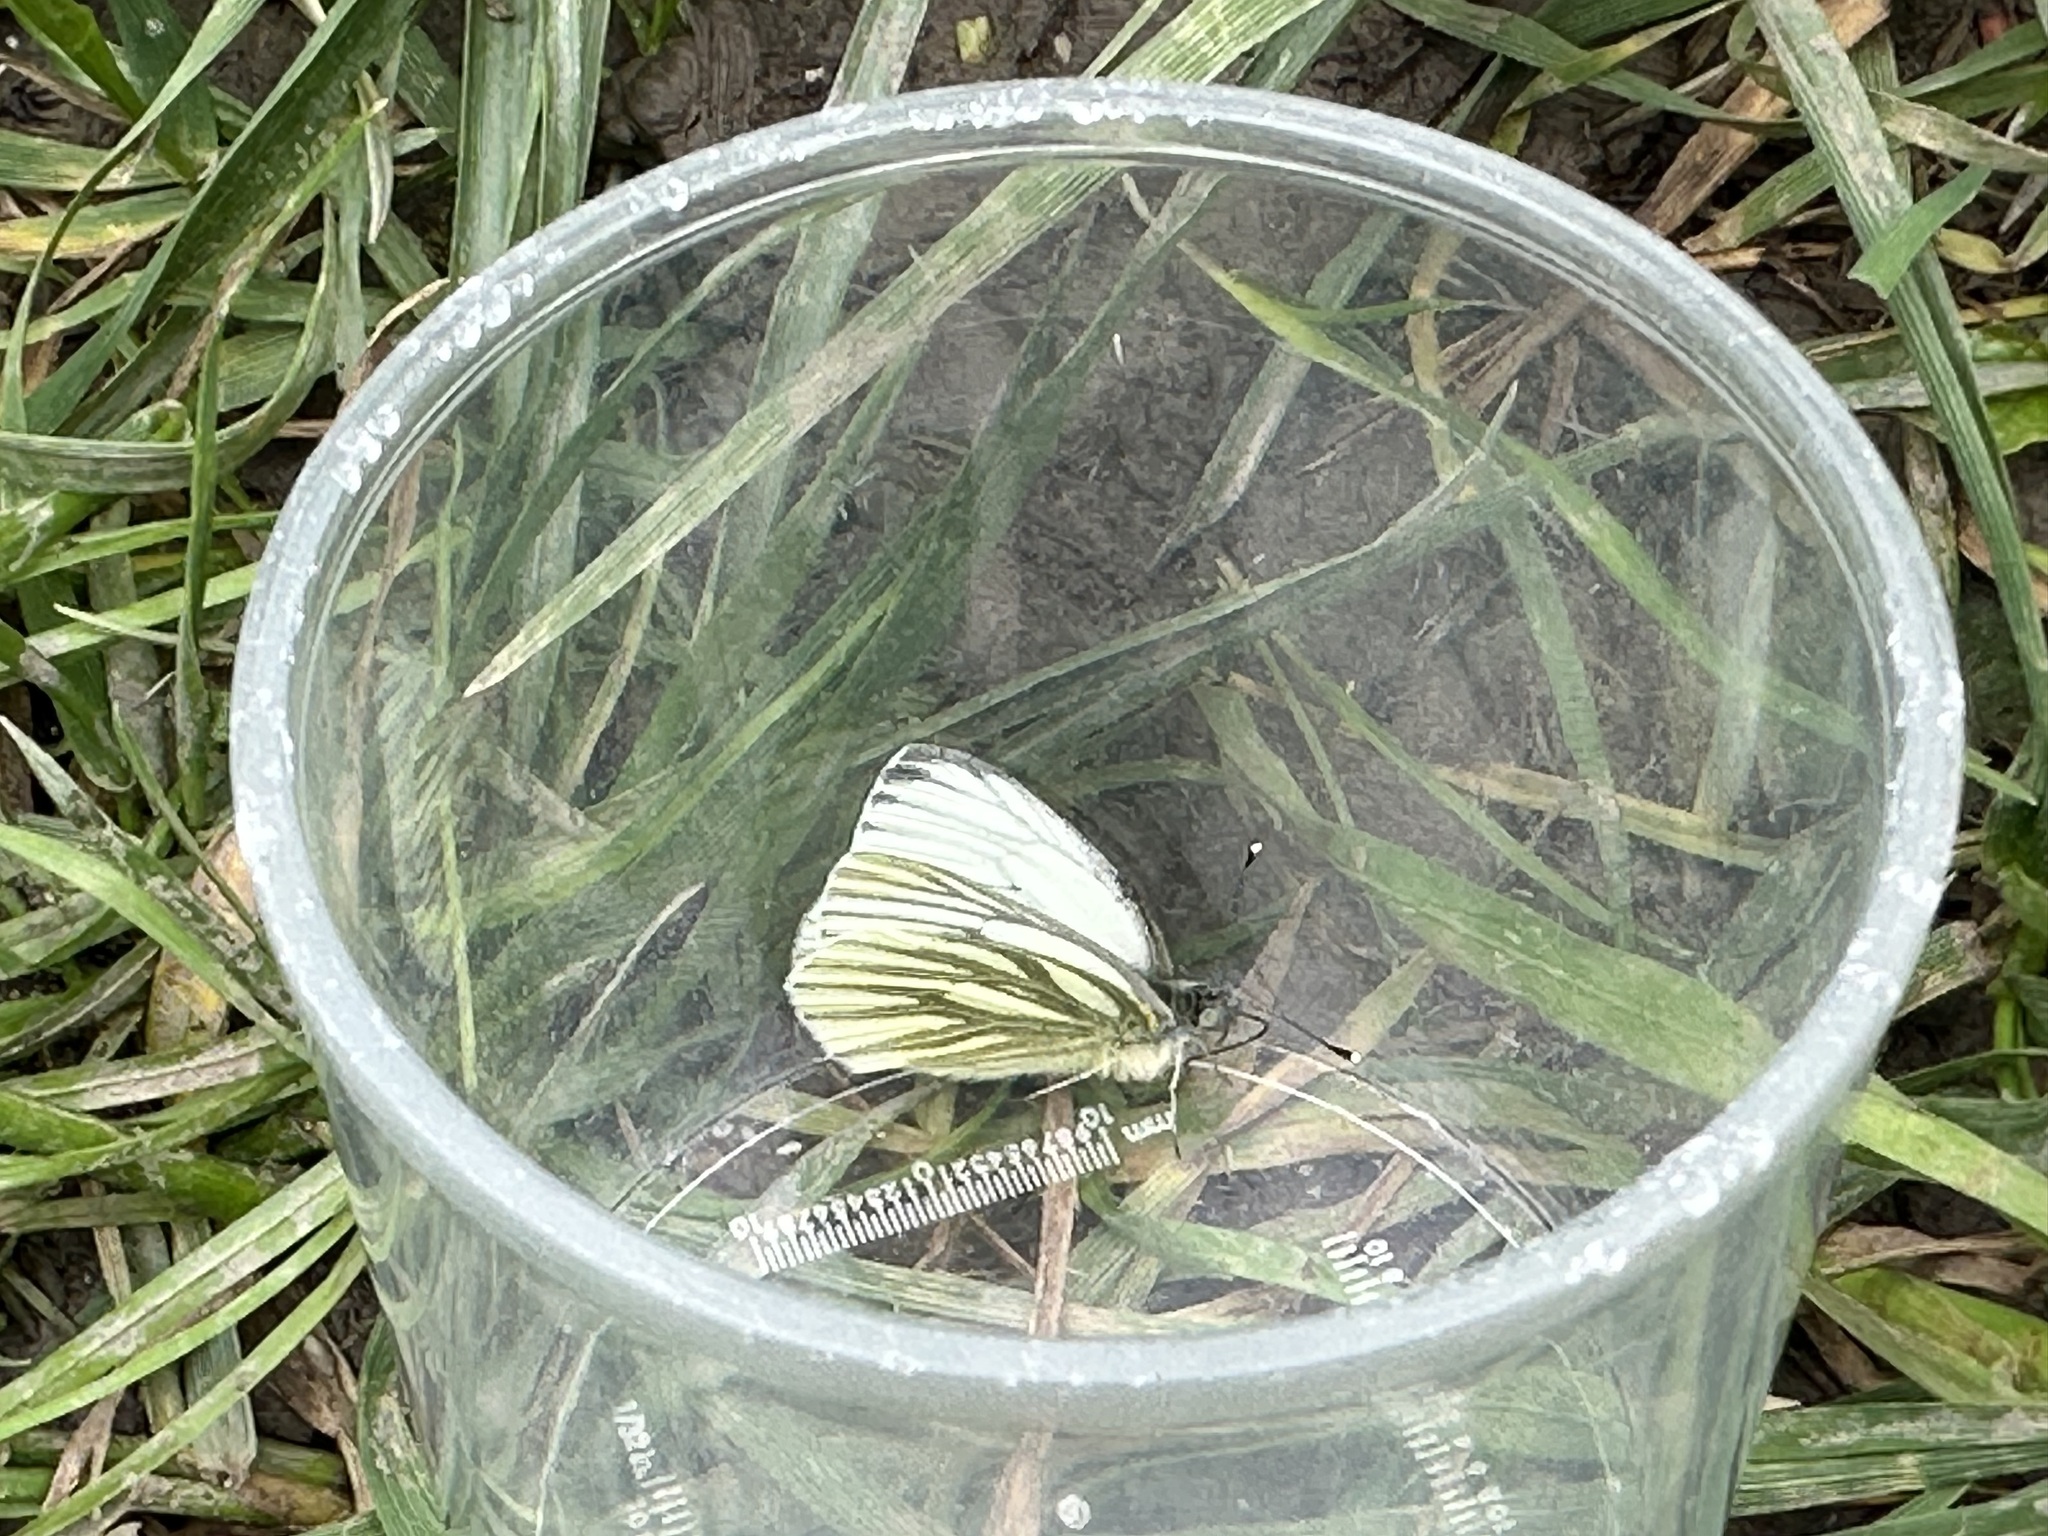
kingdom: Animalia
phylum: Arthropoda
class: Insecta
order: Lepidoptera
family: Pieridae
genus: Pieris
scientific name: Pieris napi
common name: Green-veined white
